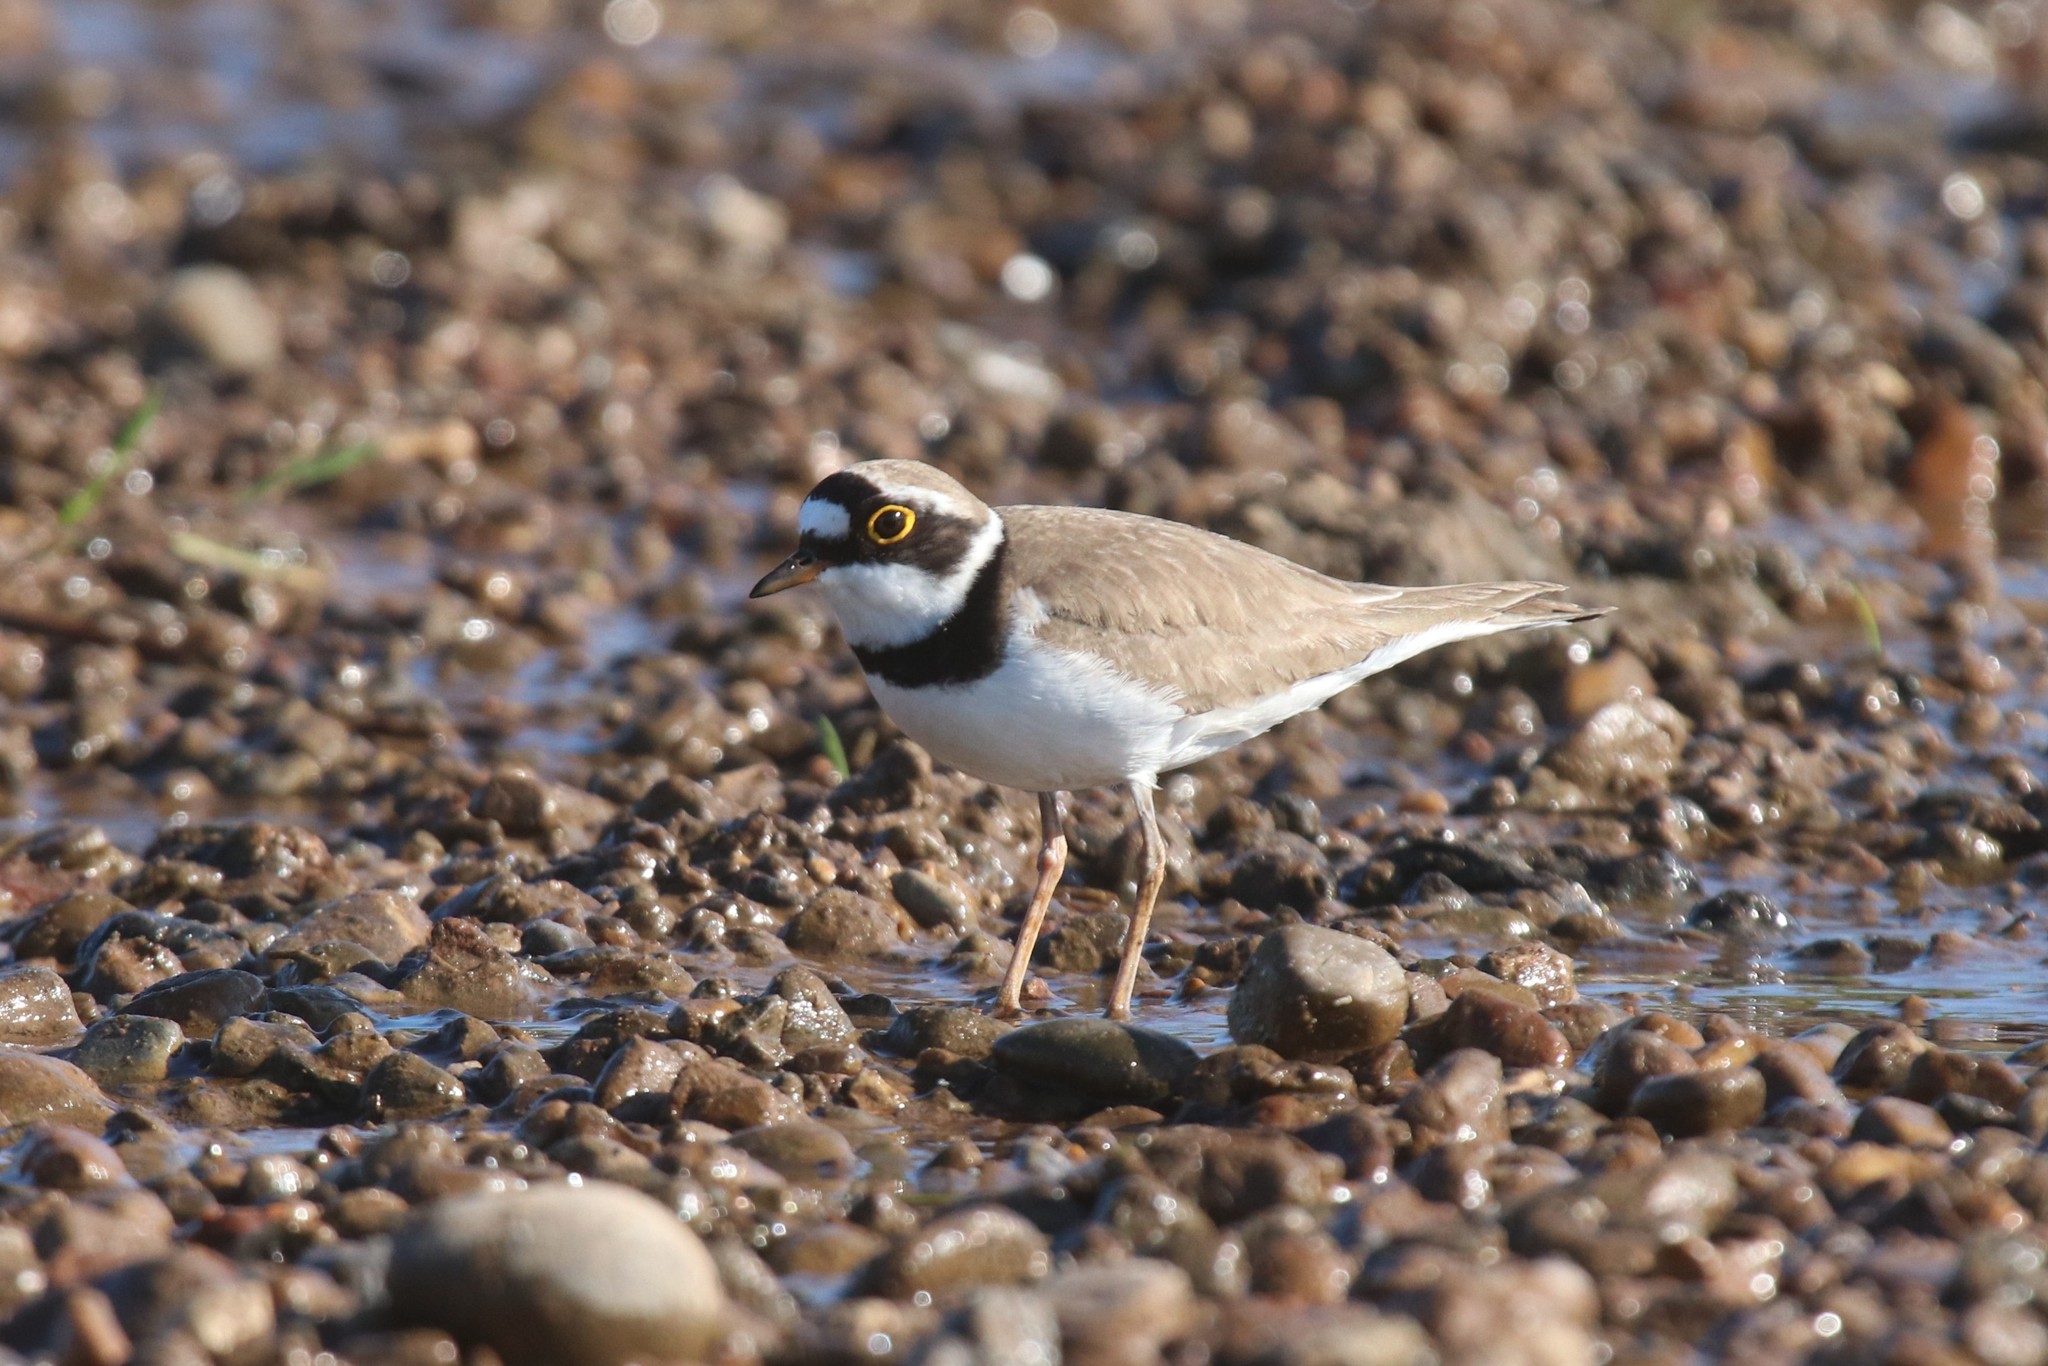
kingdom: Animalia
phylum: Chordata
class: Aves
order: Charadriiformes
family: Charadriidae
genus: Charadrius
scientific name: Charadrius dubius
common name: Little ringed plover
